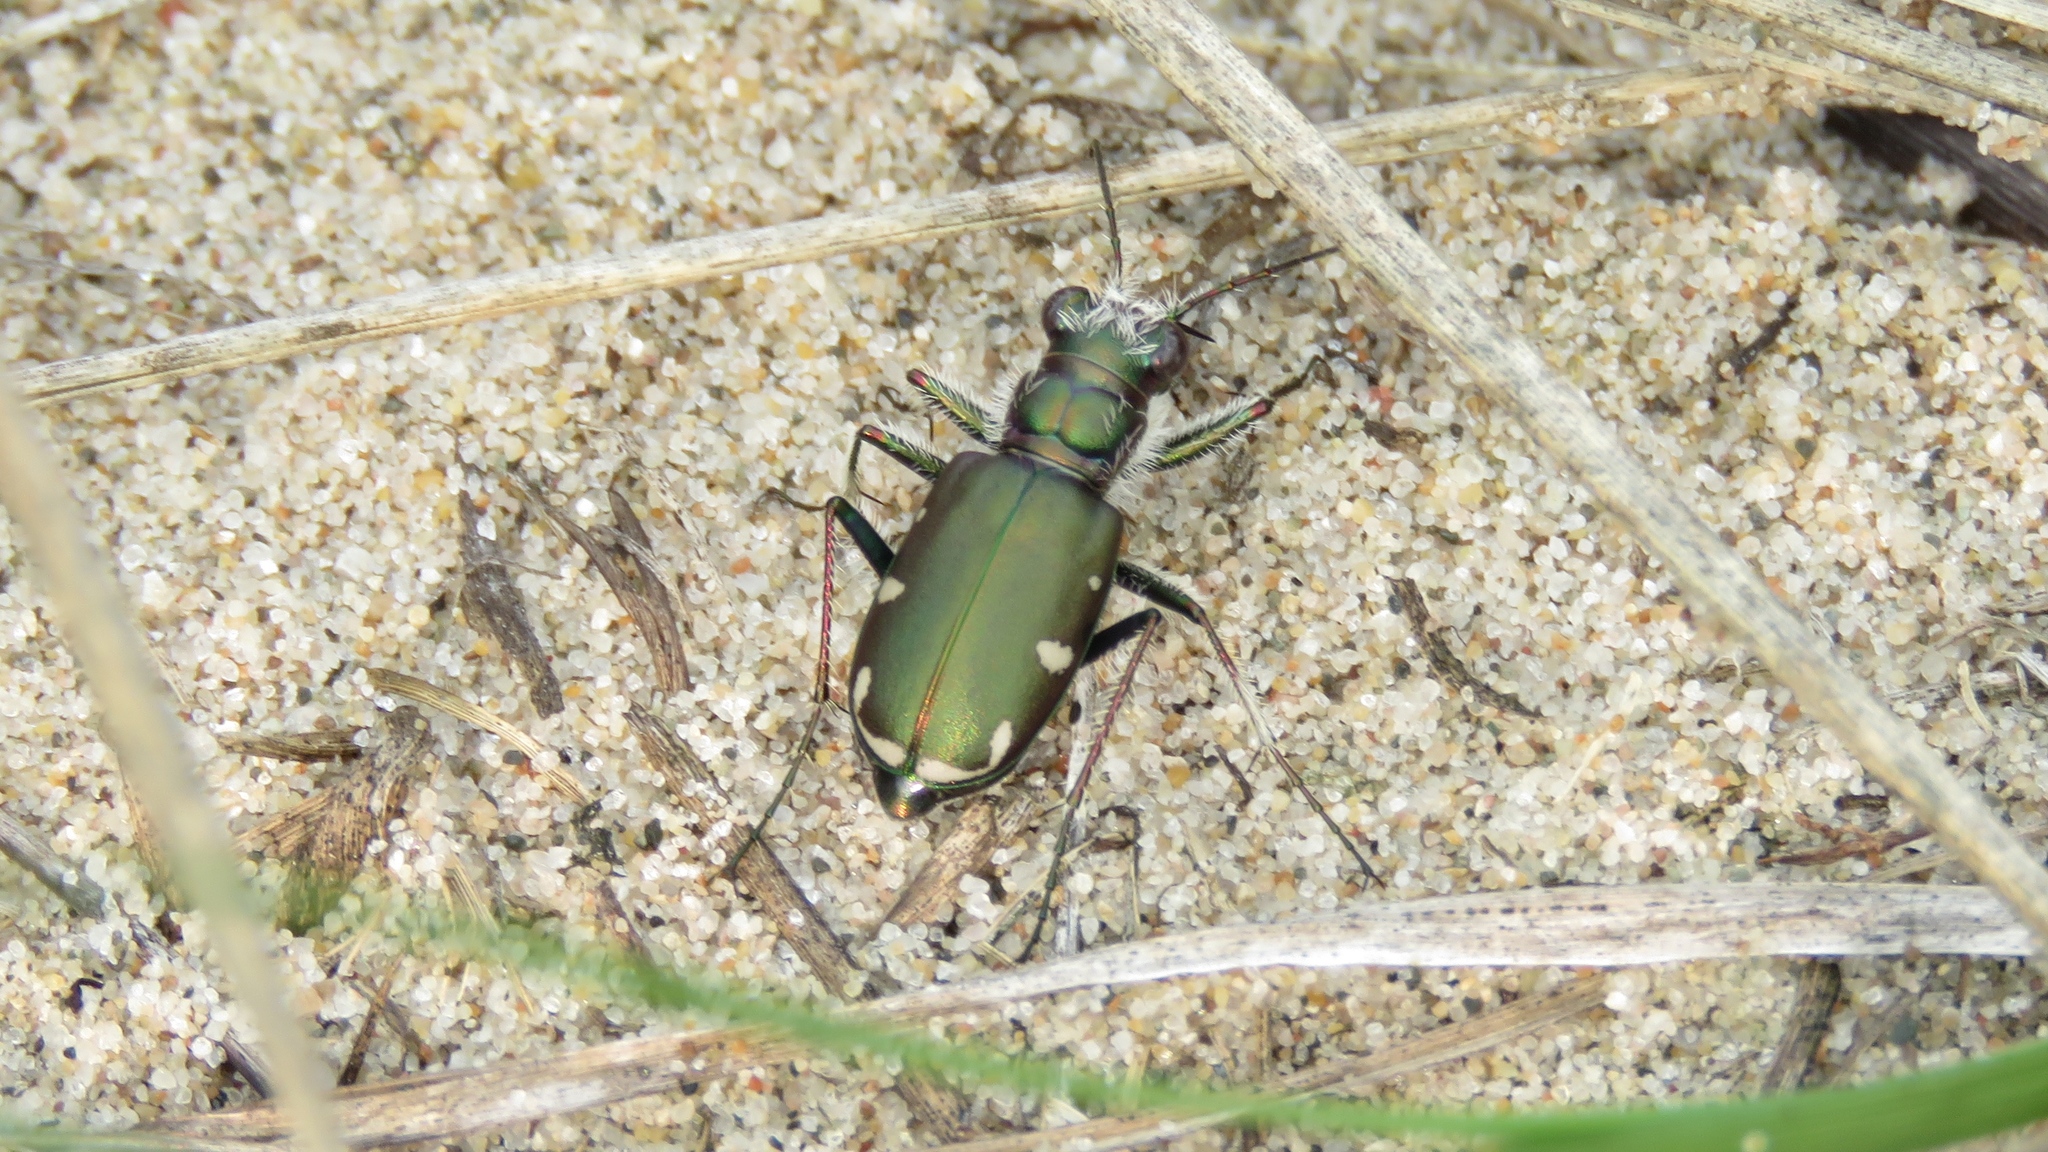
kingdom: Animalia
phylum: Arthropoda
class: Insecta
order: Coleoptera
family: Carabidae
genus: Cicindela
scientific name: Cicindela scutellaris
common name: Festive tiger beetle
